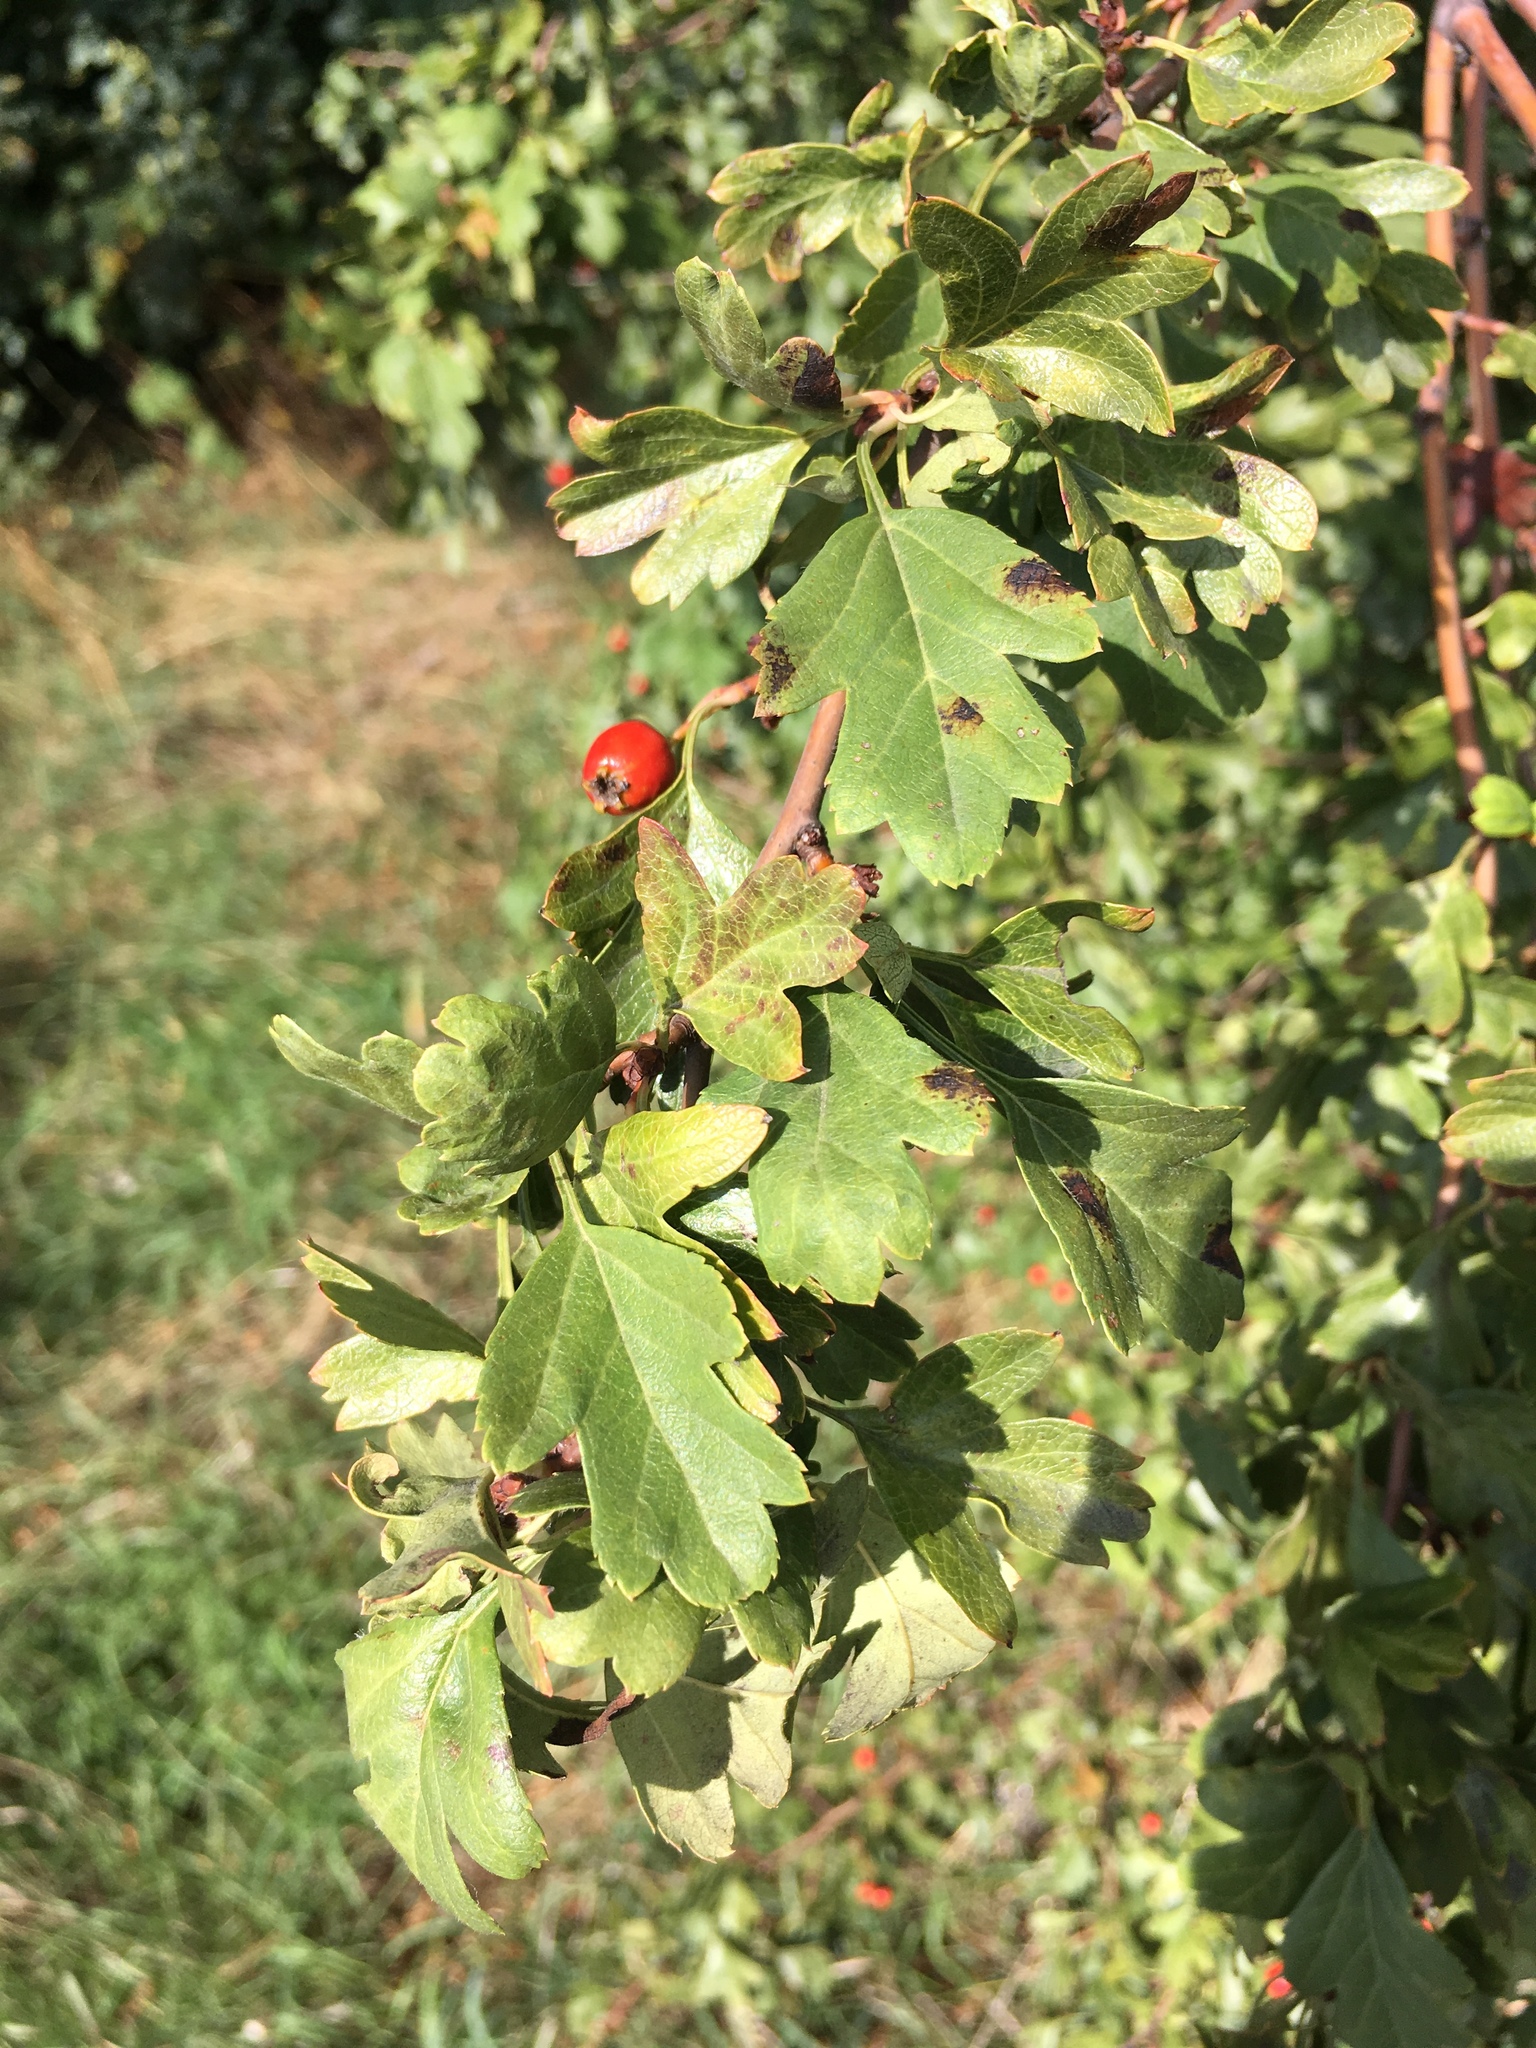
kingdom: Plantae
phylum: Tracheophyta
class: Magnoliopsida
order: Rosales
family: Rosaceae
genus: Crataegus
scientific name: Crataegus monogyna
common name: Hawthorn
